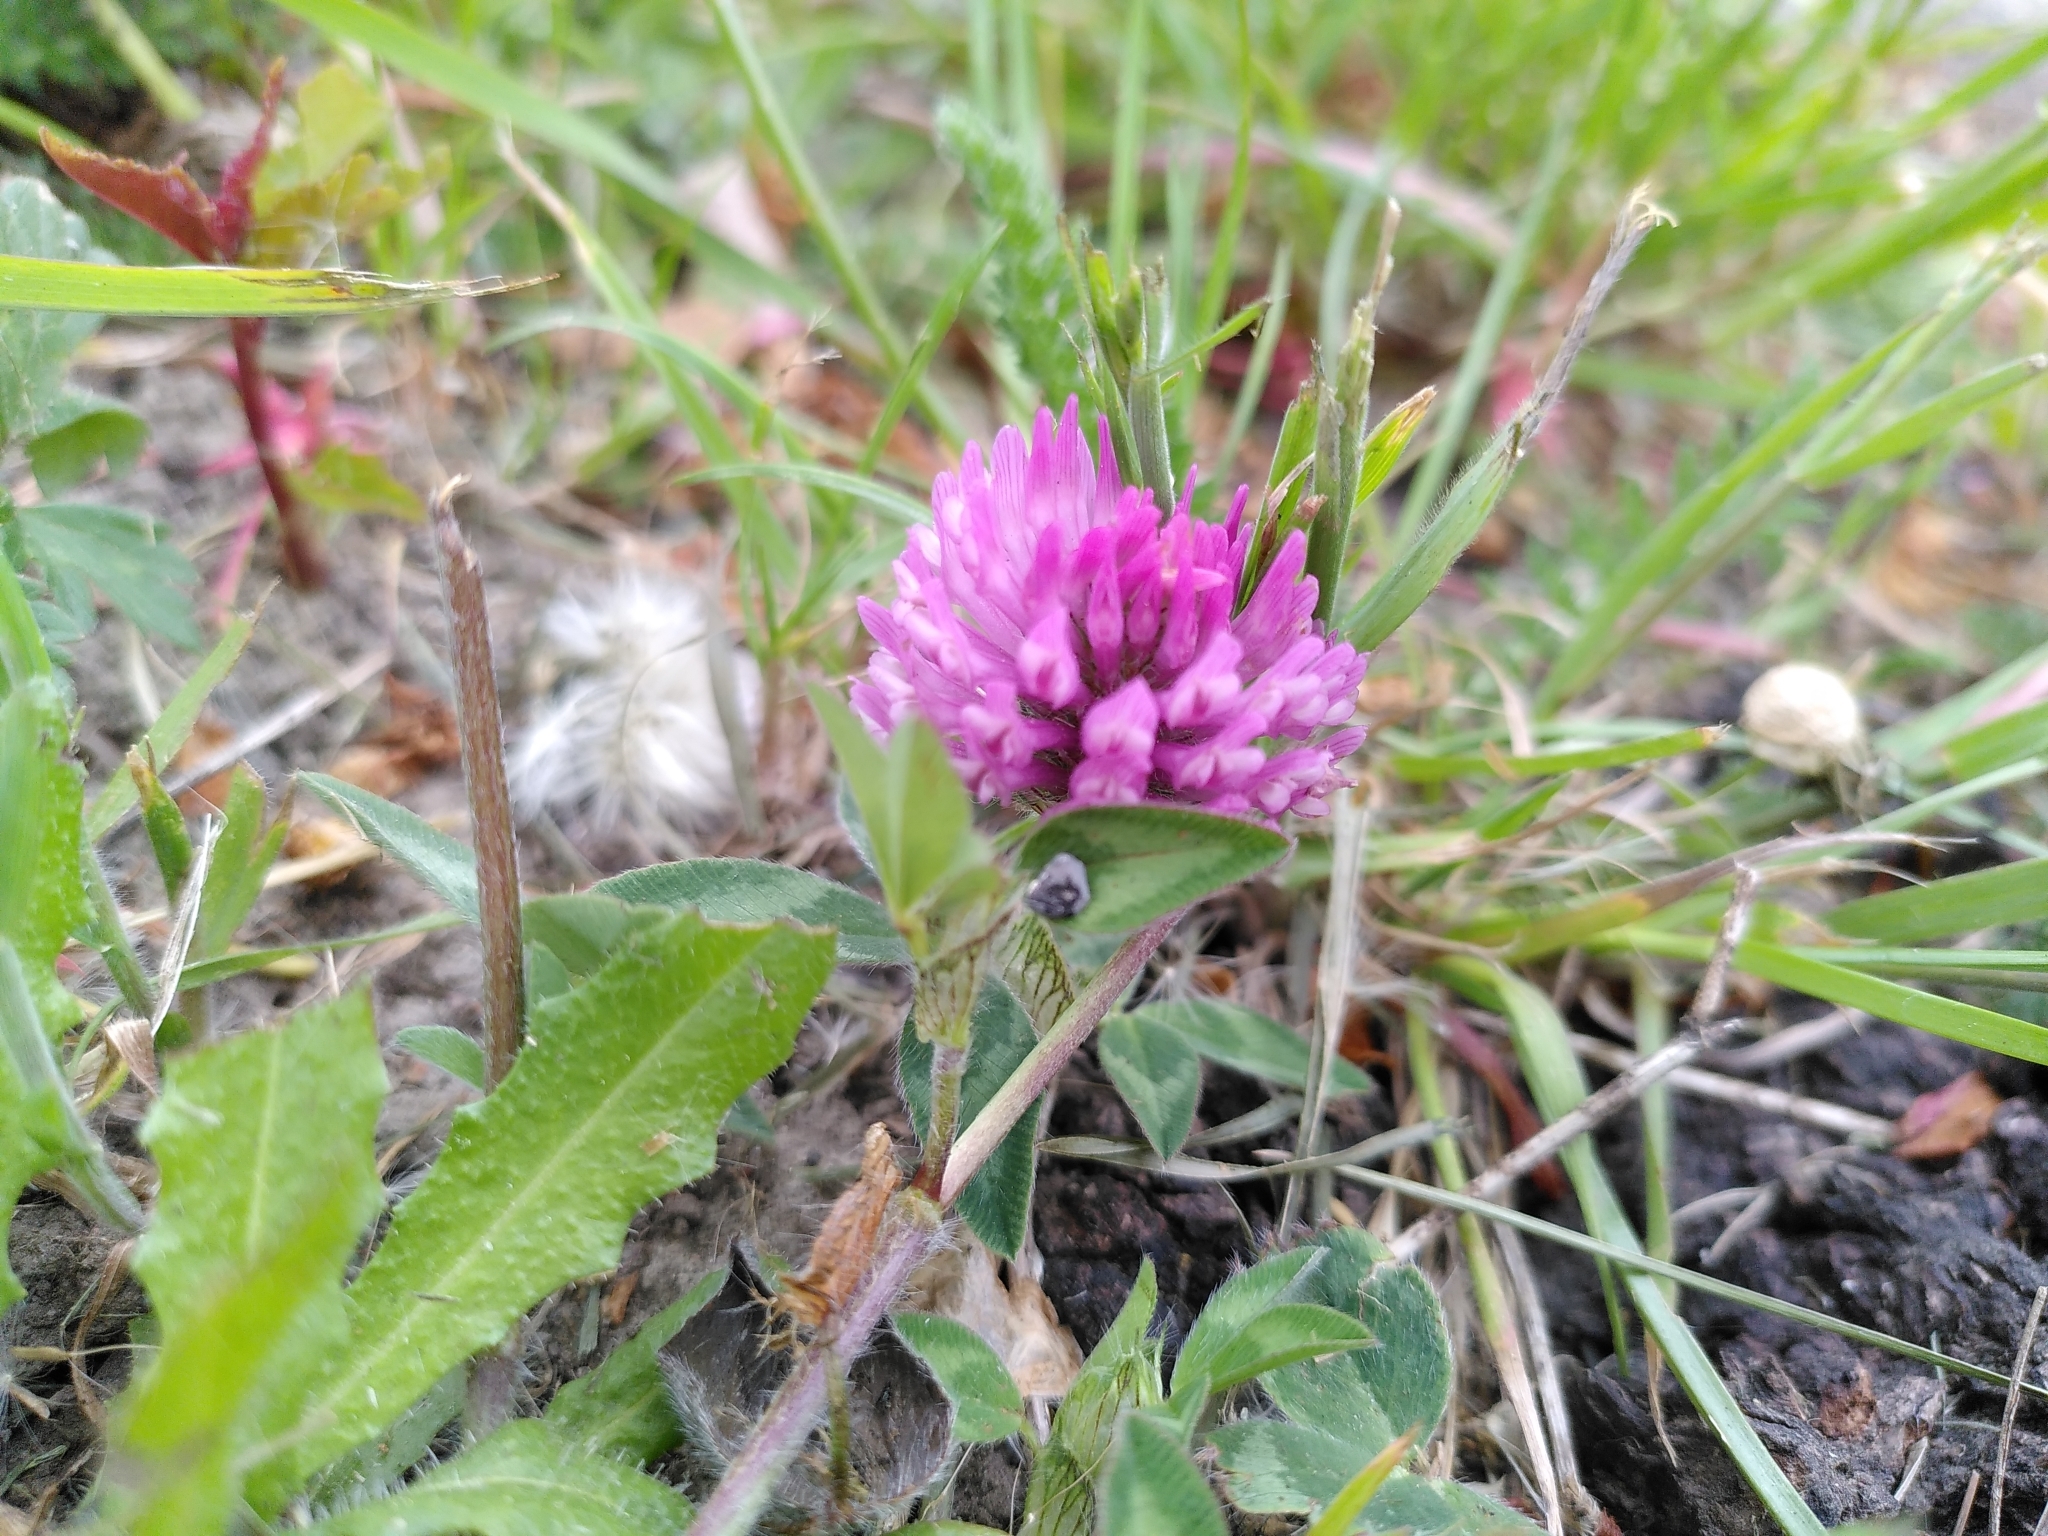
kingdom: Plantae
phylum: Tracheophyta
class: Magnoliopsida
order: Fabales
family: Fabaceae
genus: Trifolium
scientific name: Trifolium pratense
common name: Red clover
